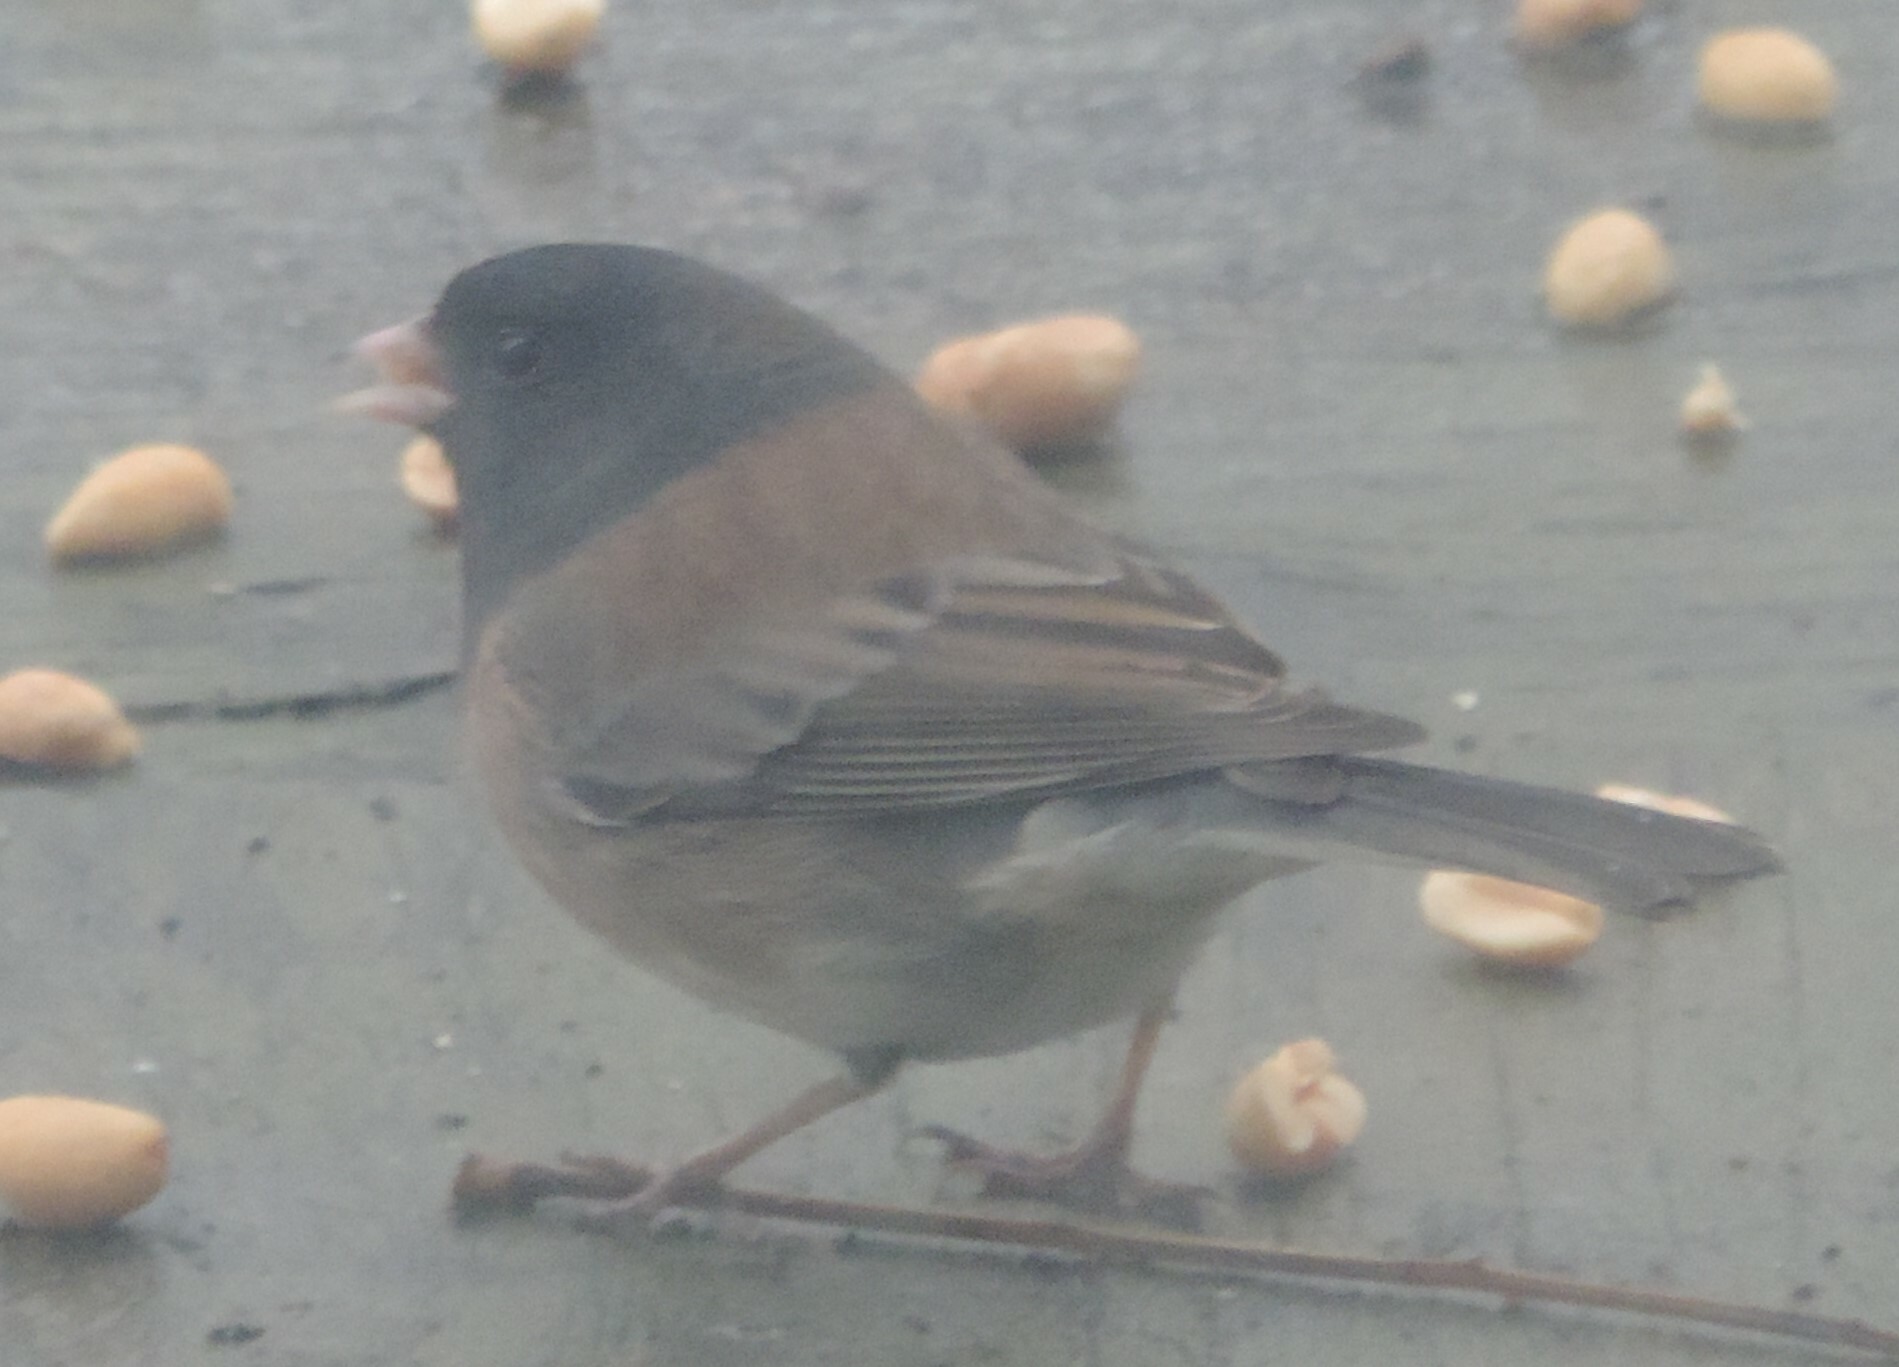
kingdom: Animalia
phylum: Chordata
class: Aves
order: Passeriformes
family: Passerellidae
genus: Junco
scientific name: Junco hyemalis
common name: Dark-eyed junco
